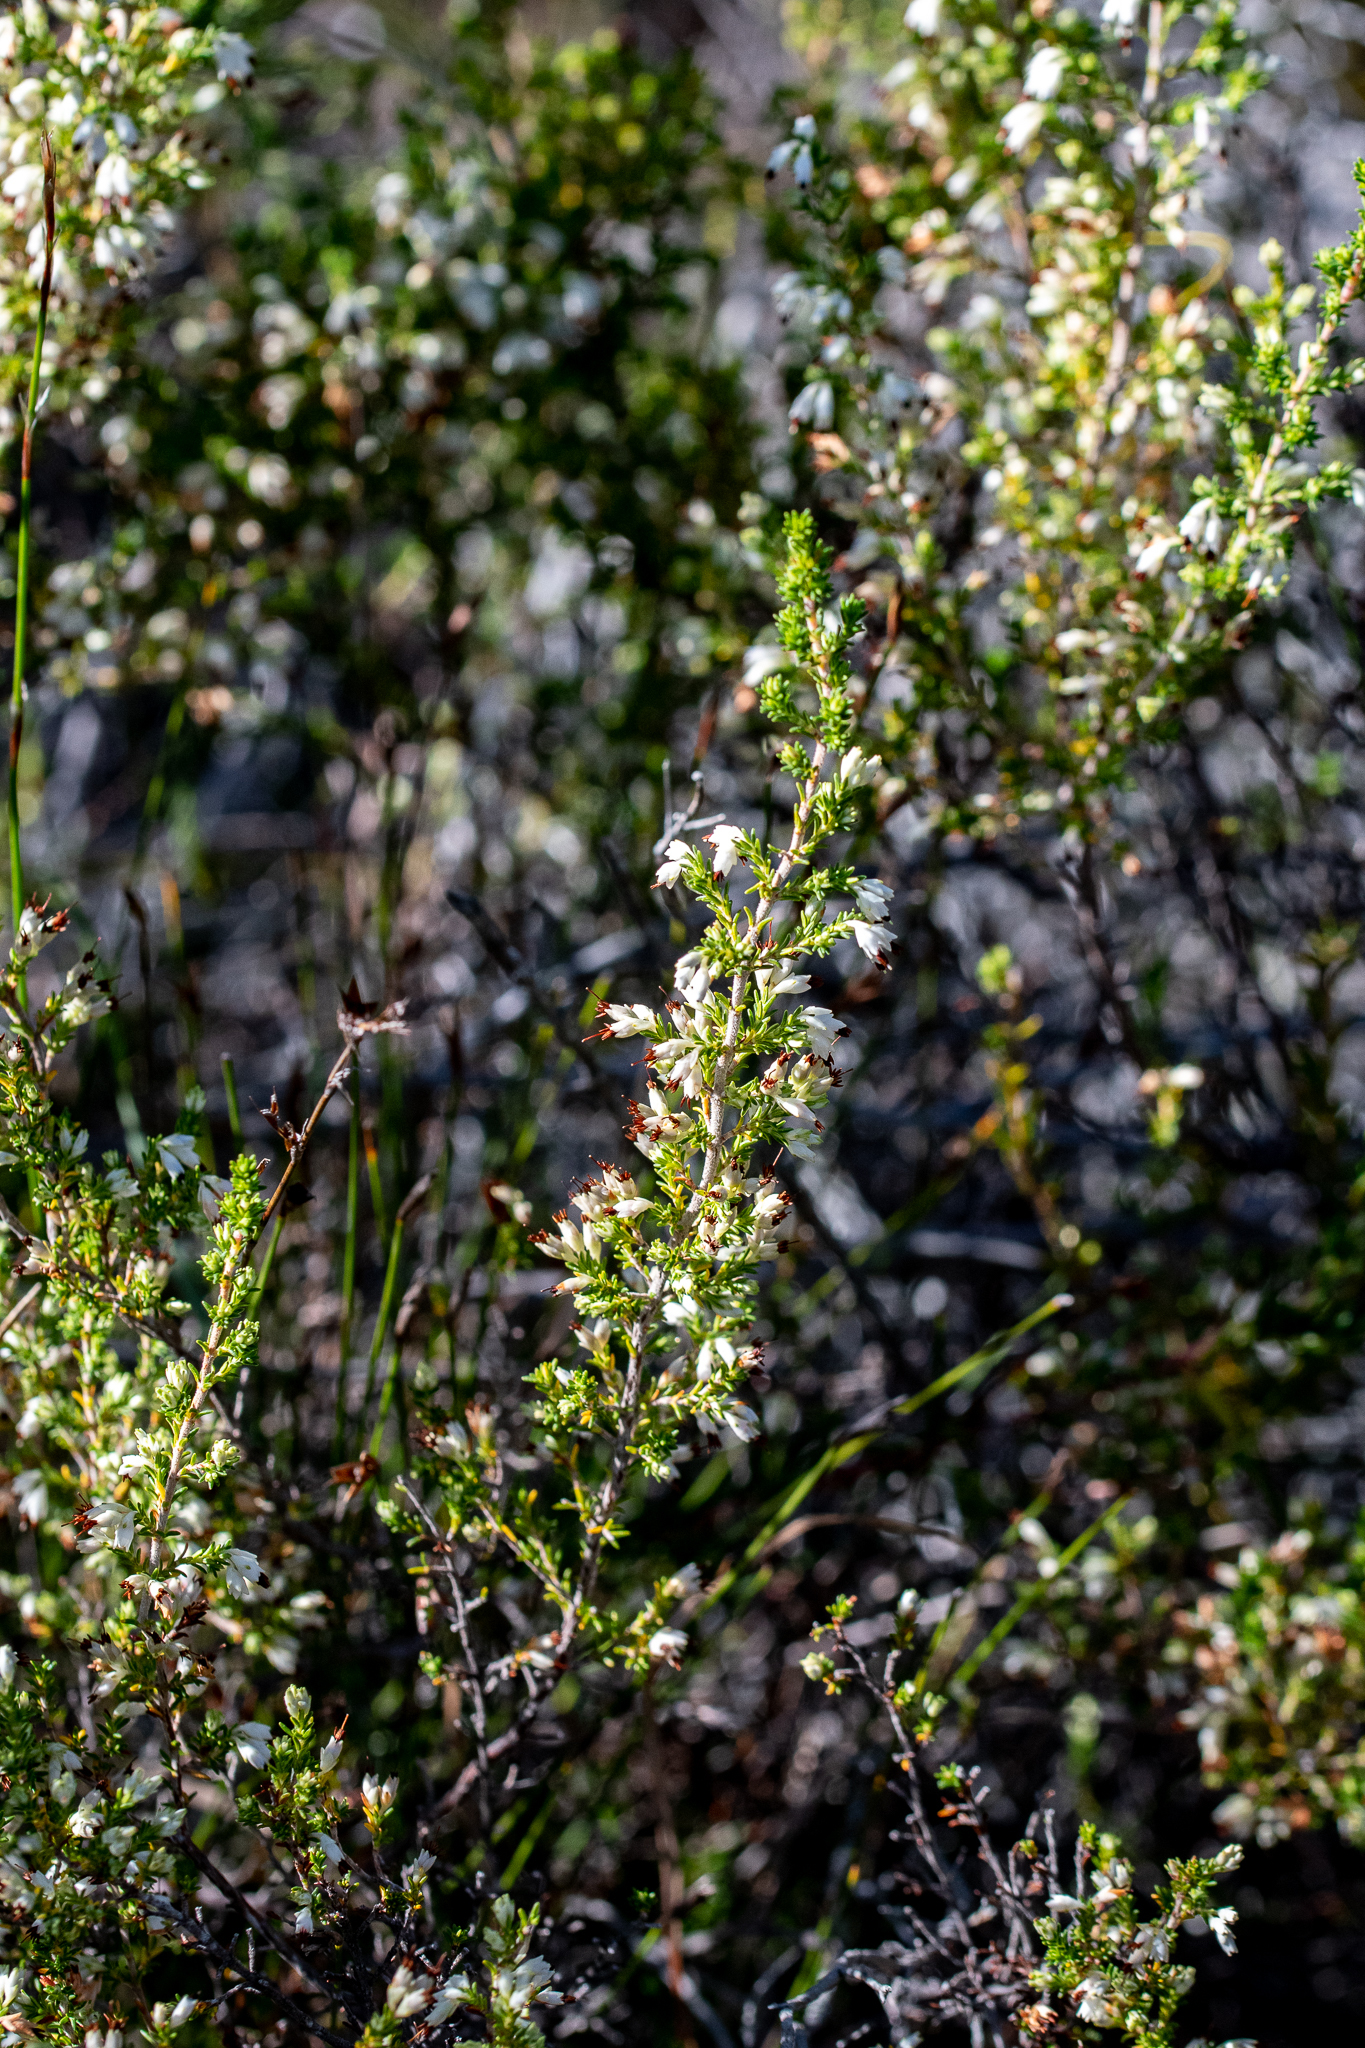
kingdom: Plantae
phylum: Tracheophyta
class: Magnoliopsida
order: Ericales
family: Ericaceae
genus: Erica
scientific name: Erica imbricata
